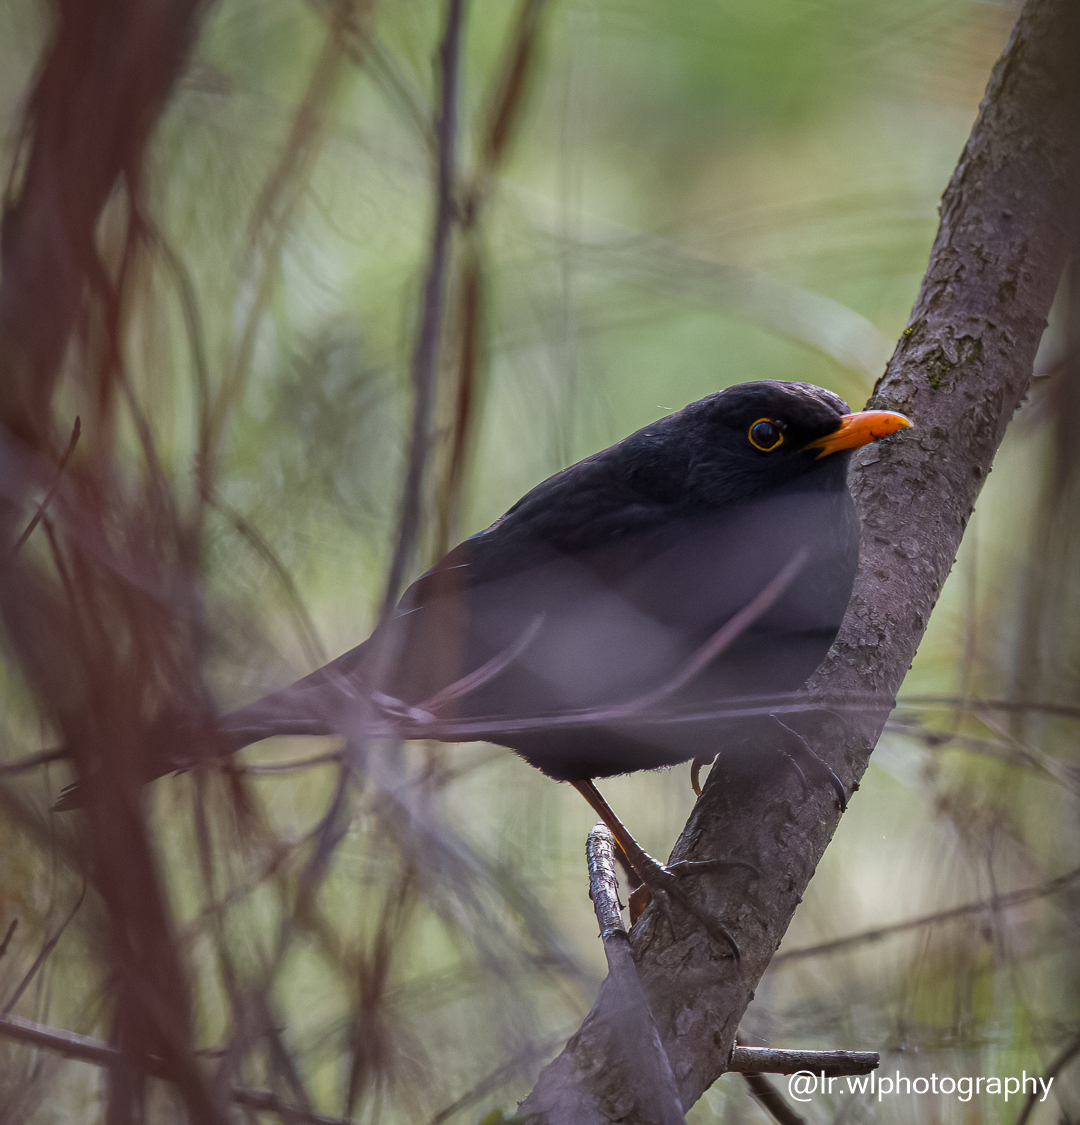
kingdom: Animalia
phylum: Chordata
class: Aves
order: Passeriformes
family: Turdidae
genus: Turdus
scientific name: Turdus merula
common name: Common blackbird
